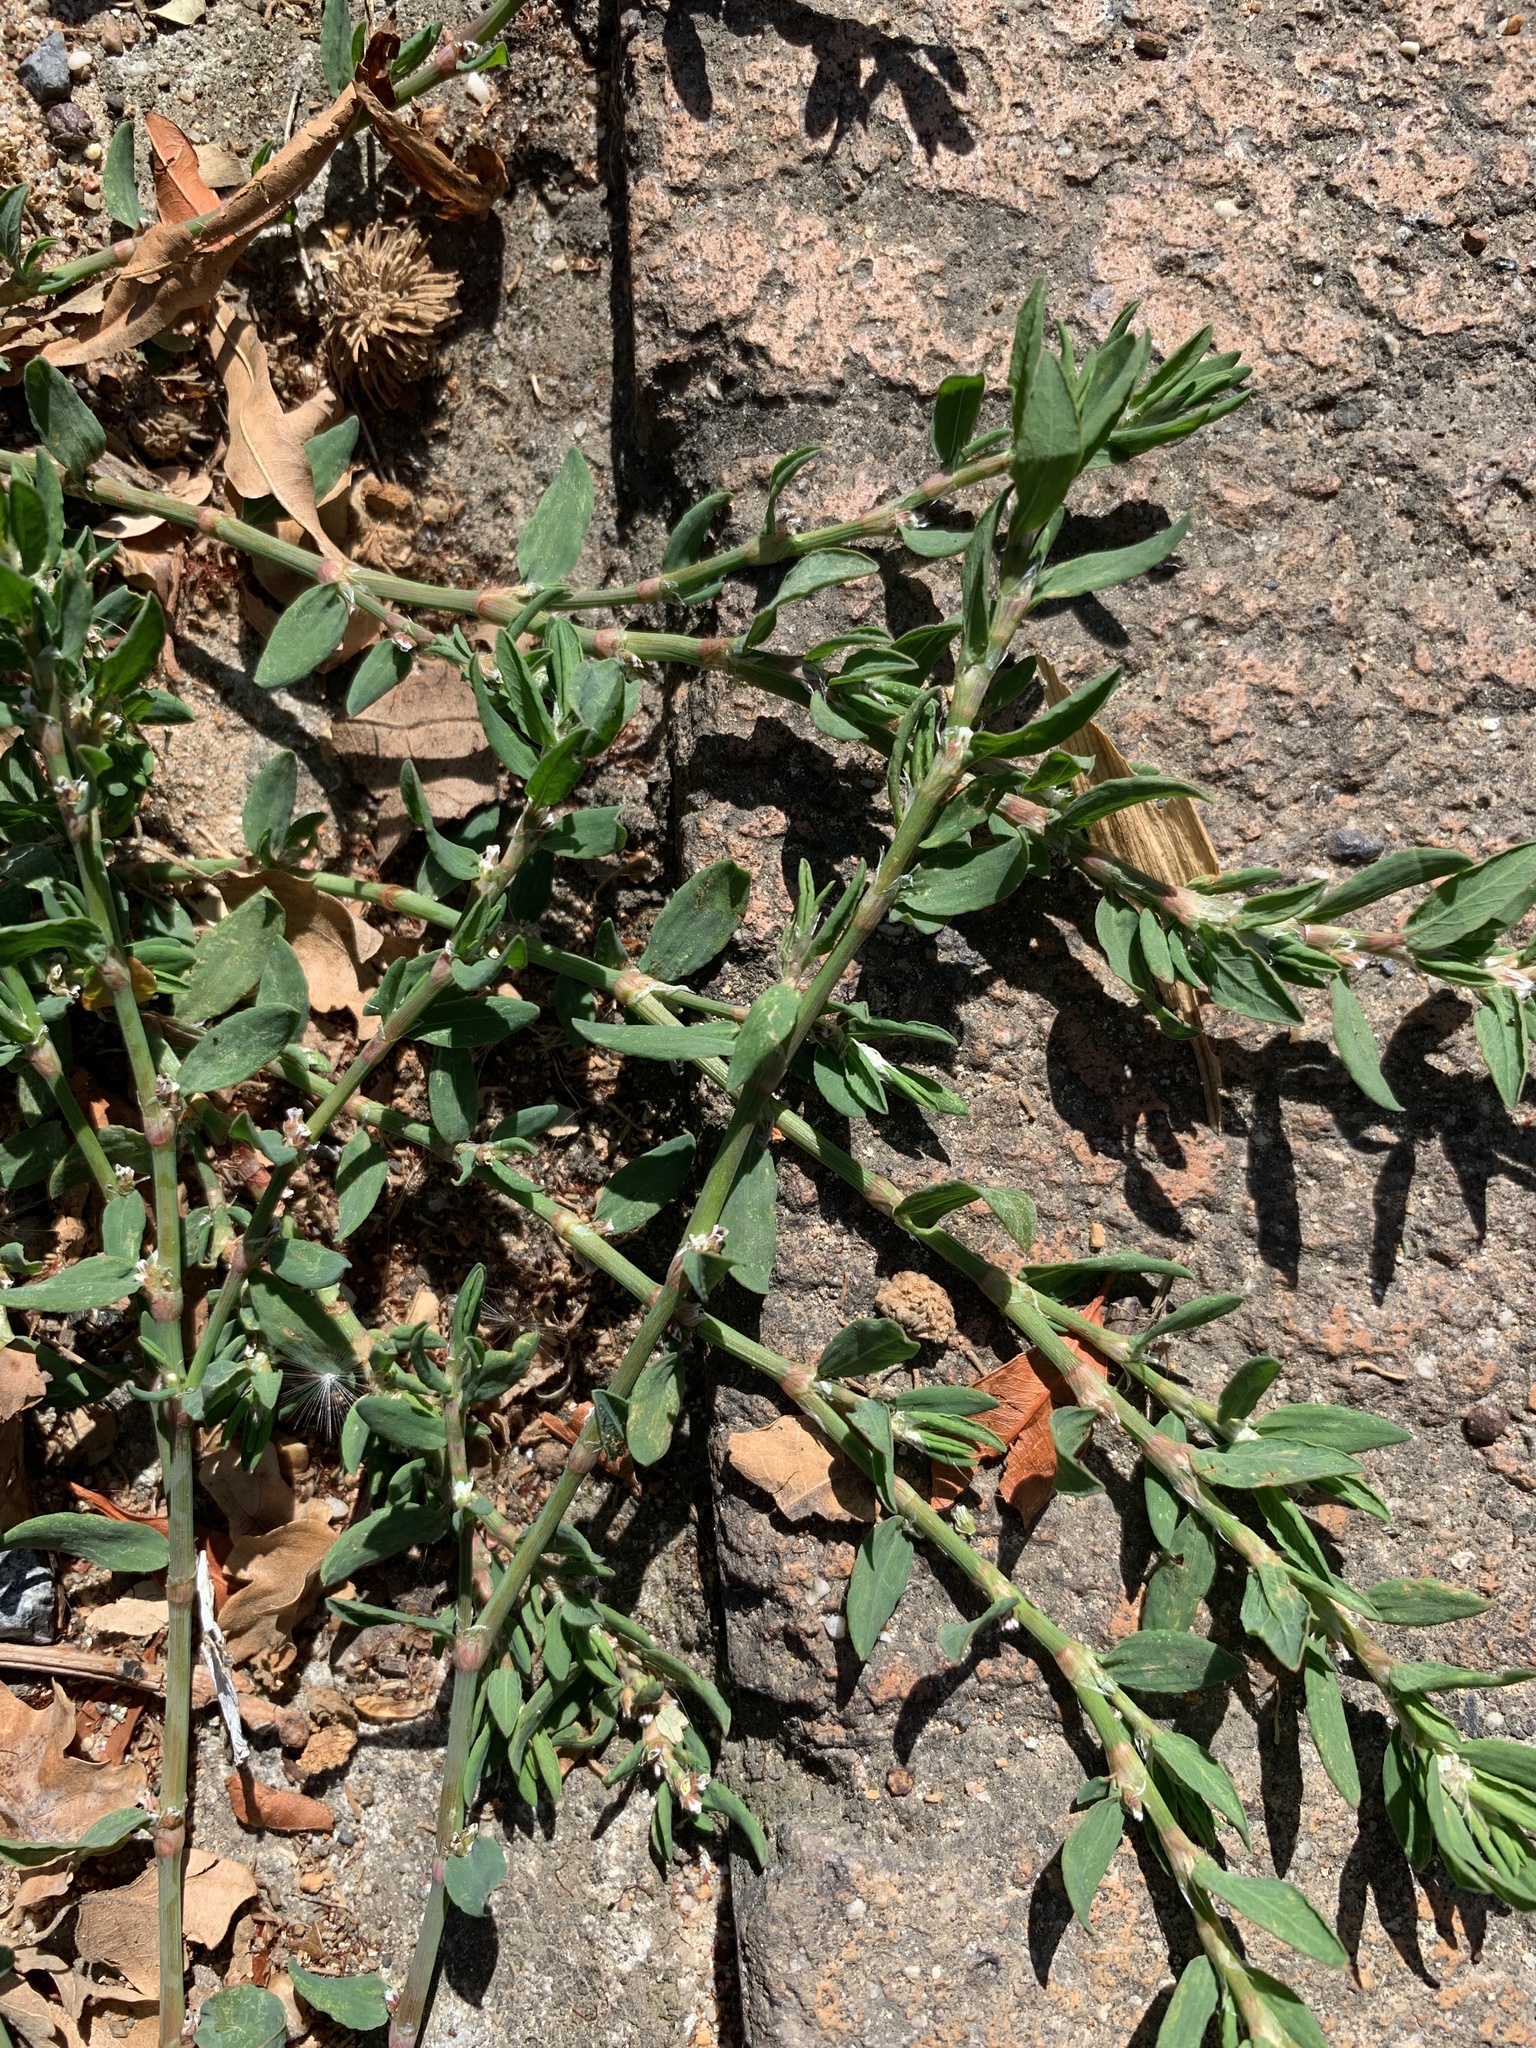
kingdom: Plantae
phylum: Tracheophyta
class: Magnoliopsida
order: Caryophyllales
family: Polygonaceae
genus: Polygonum
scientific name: Polygonum aviculare
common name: Prostrate knotweed
